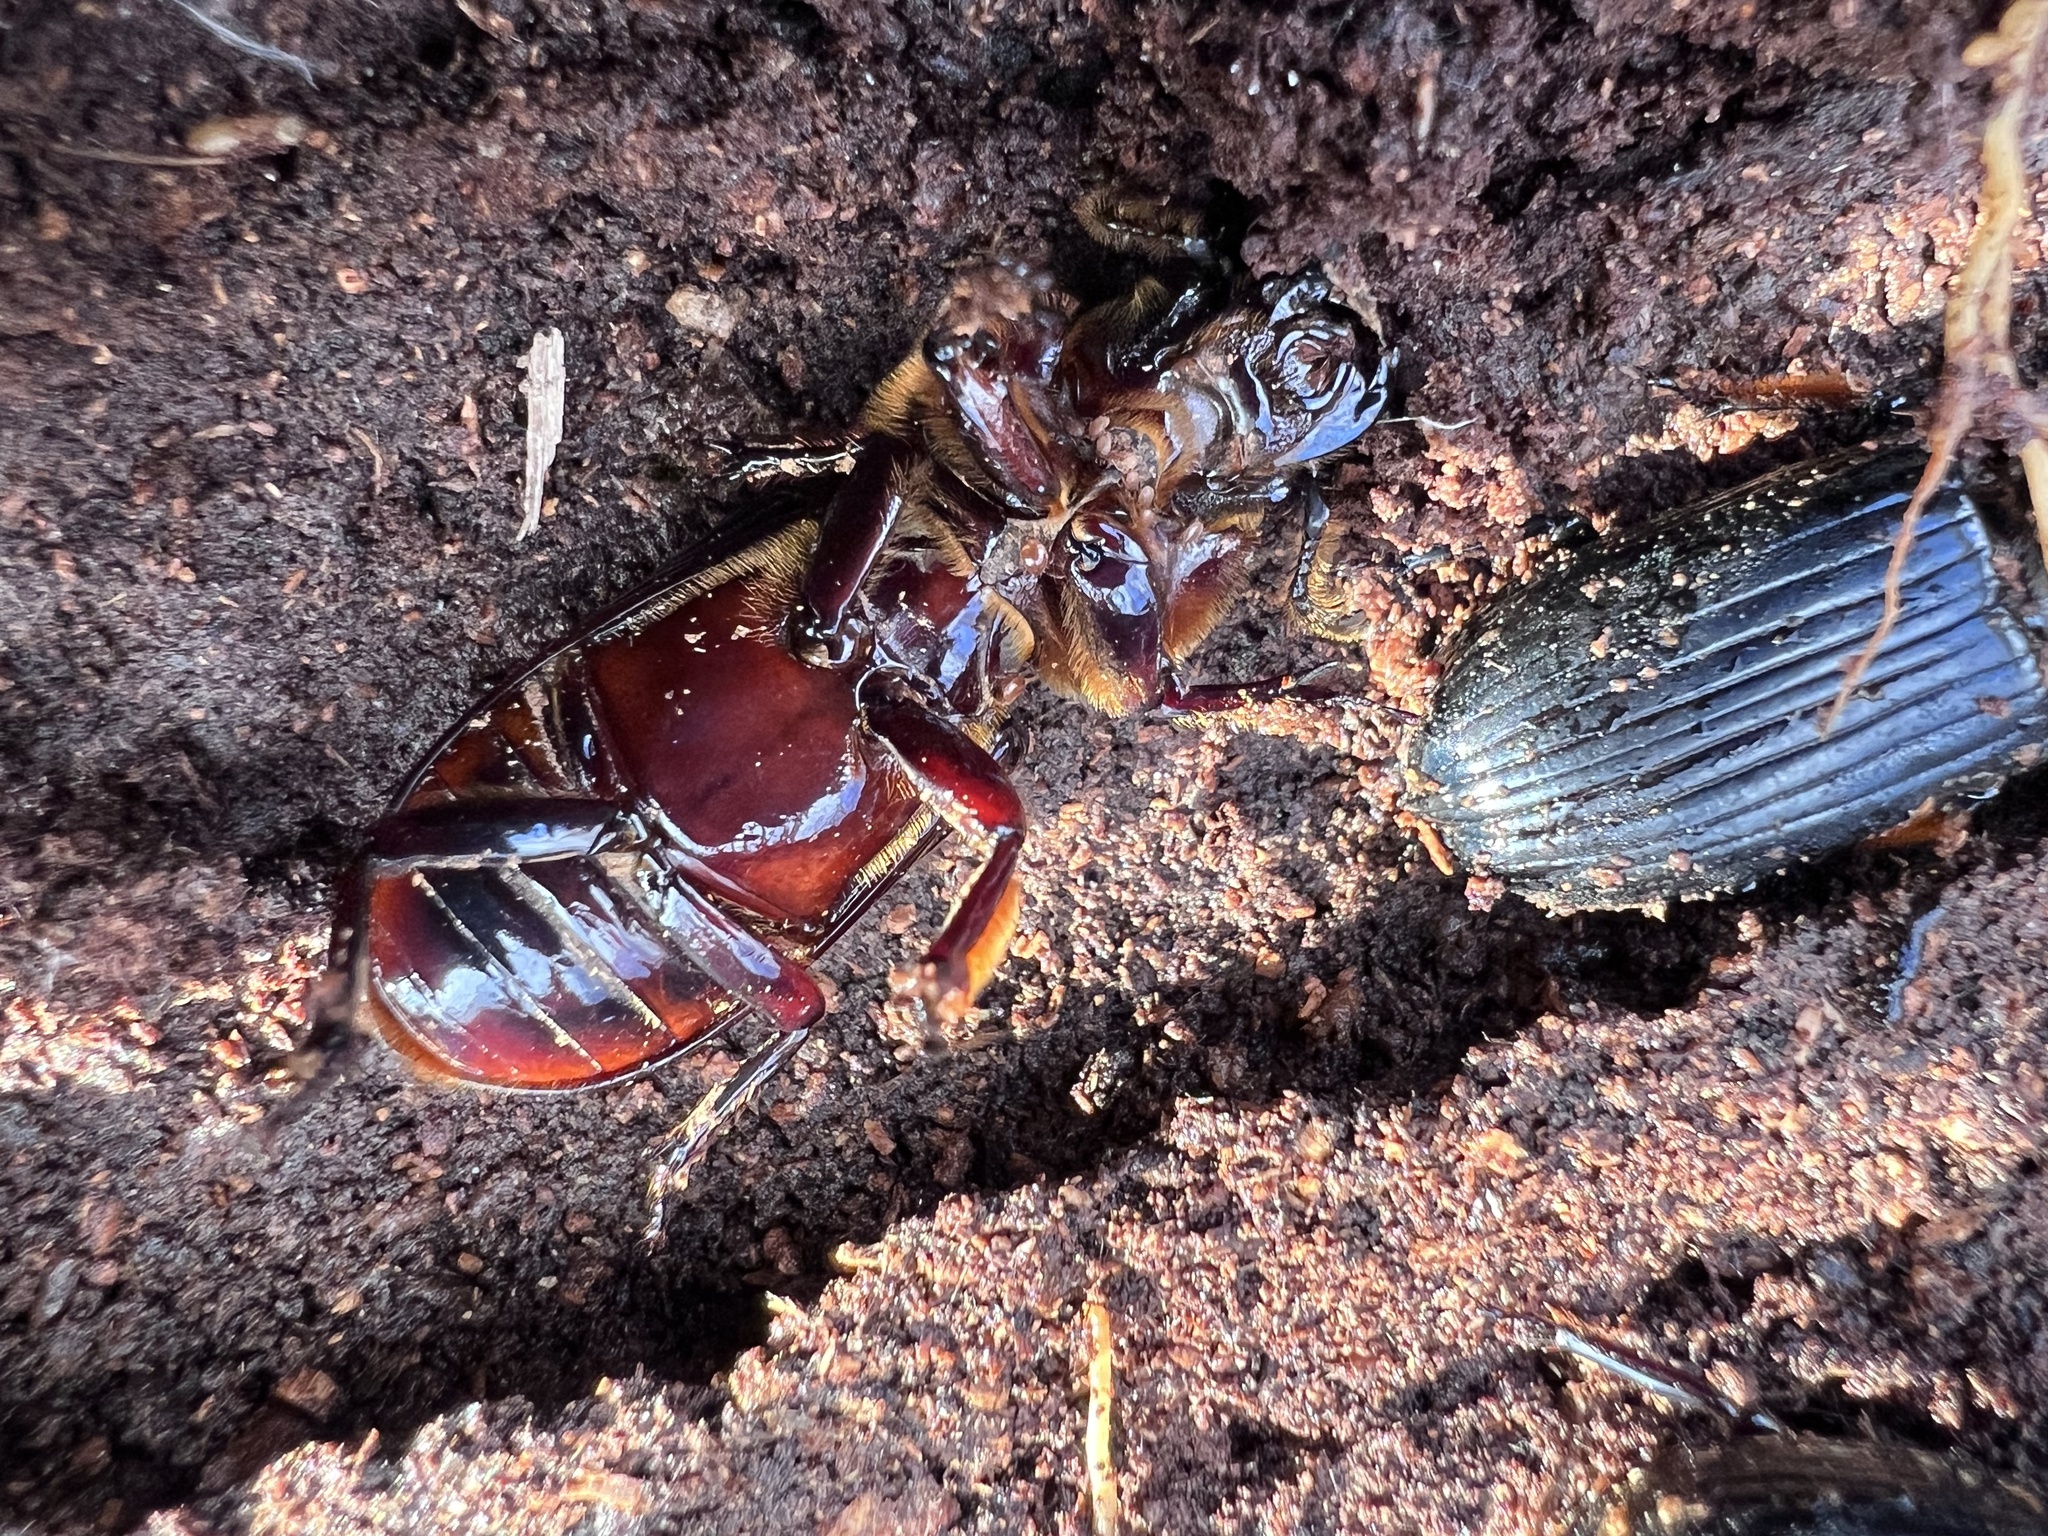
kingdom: Animalia
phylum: Arthropoda
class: Insecta
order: Coleoptera
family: Passalidae
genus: Odontotaenius
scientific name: Odontotaenius disjunctus
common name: Patent leather beetle
